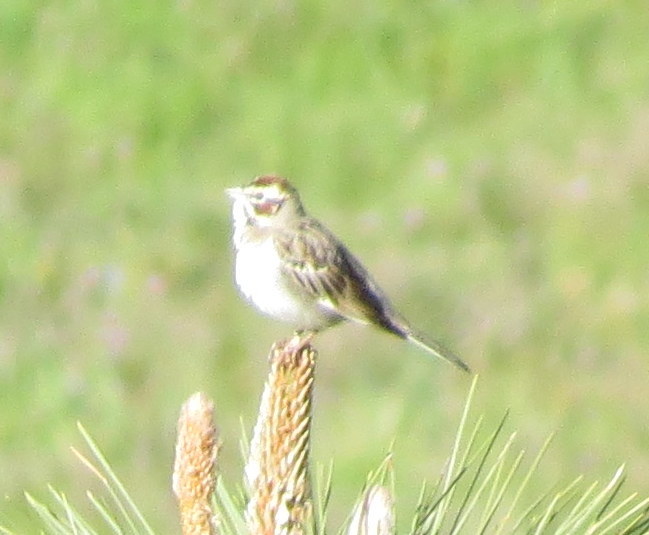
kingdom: Animalia
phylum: Chordata
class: Aves
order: Passeriformes
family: Passerellidae
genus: Chondestes
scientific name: Chondestes grammacus
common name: Lark sparrow
